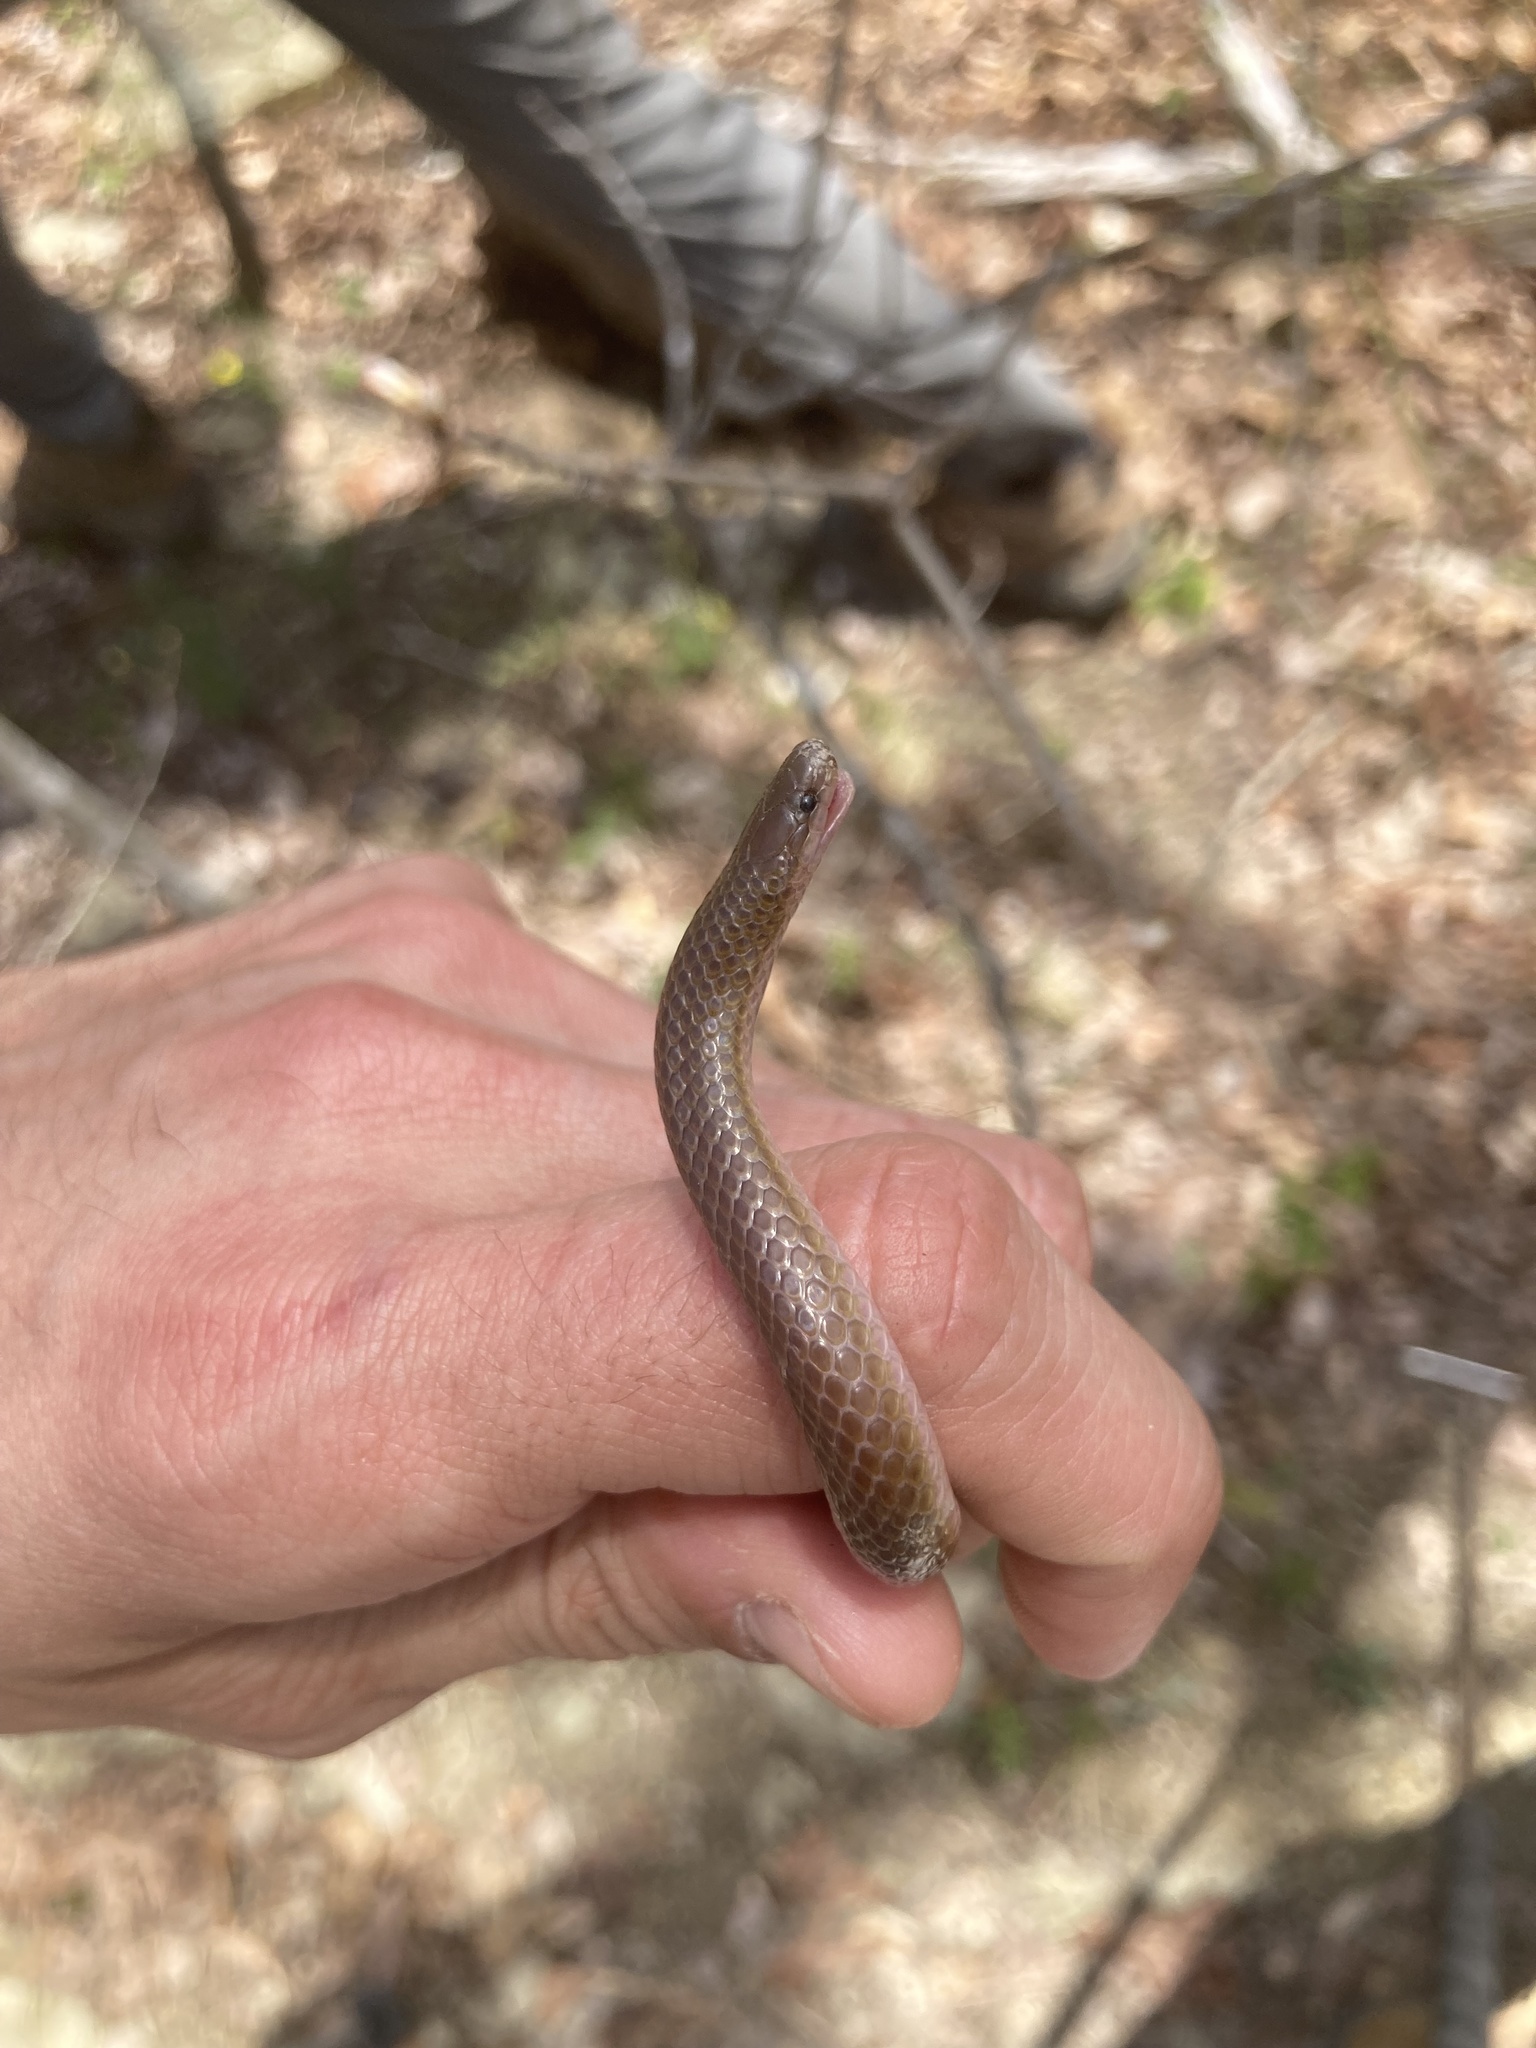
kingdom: Animalia
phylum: Chordata
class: Squamata
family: Colubridae
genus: Carphophis
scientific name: Carphophis amoenus
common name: Eastern worm snake
